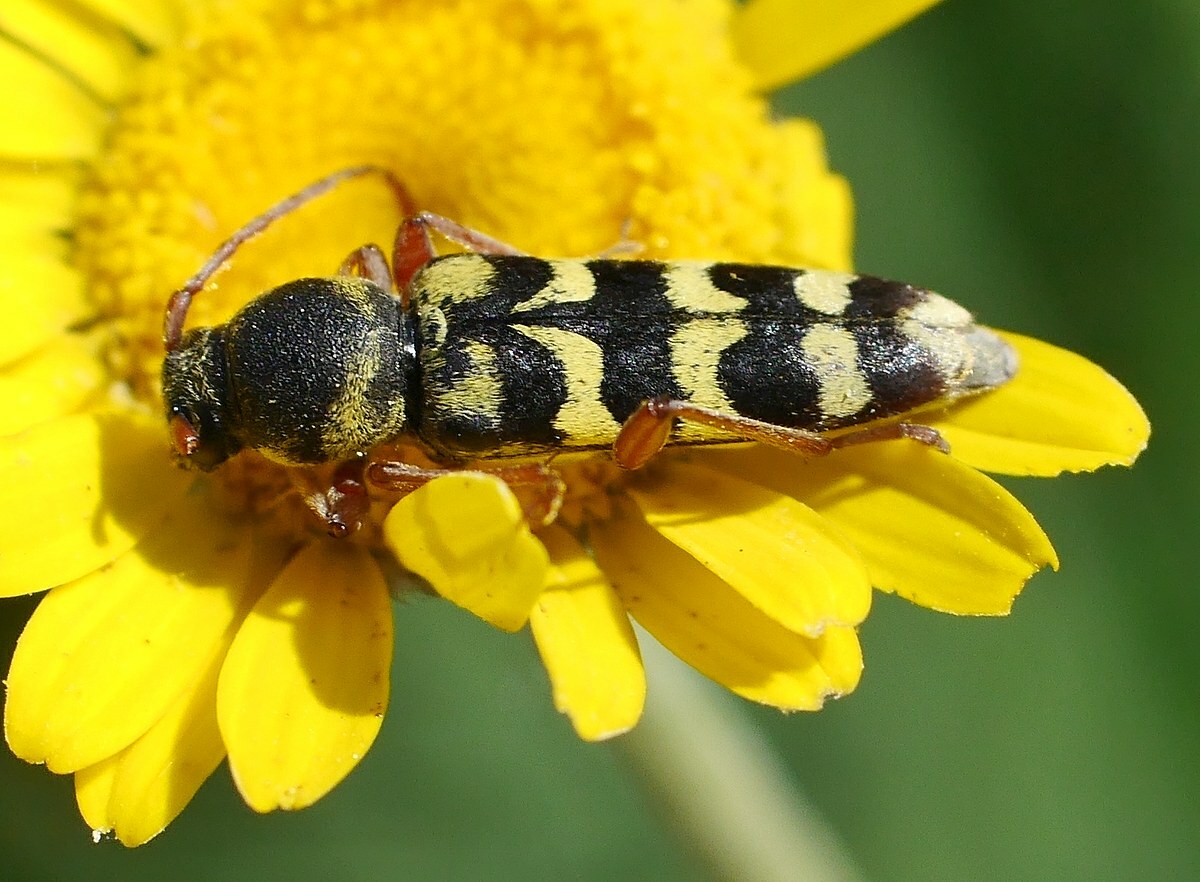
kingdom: Animalia
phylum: Arthropoda
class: Insecta
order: Coleoptera
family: Cerambycidae
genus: Plagionotus
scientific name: Plagionotus floralis
